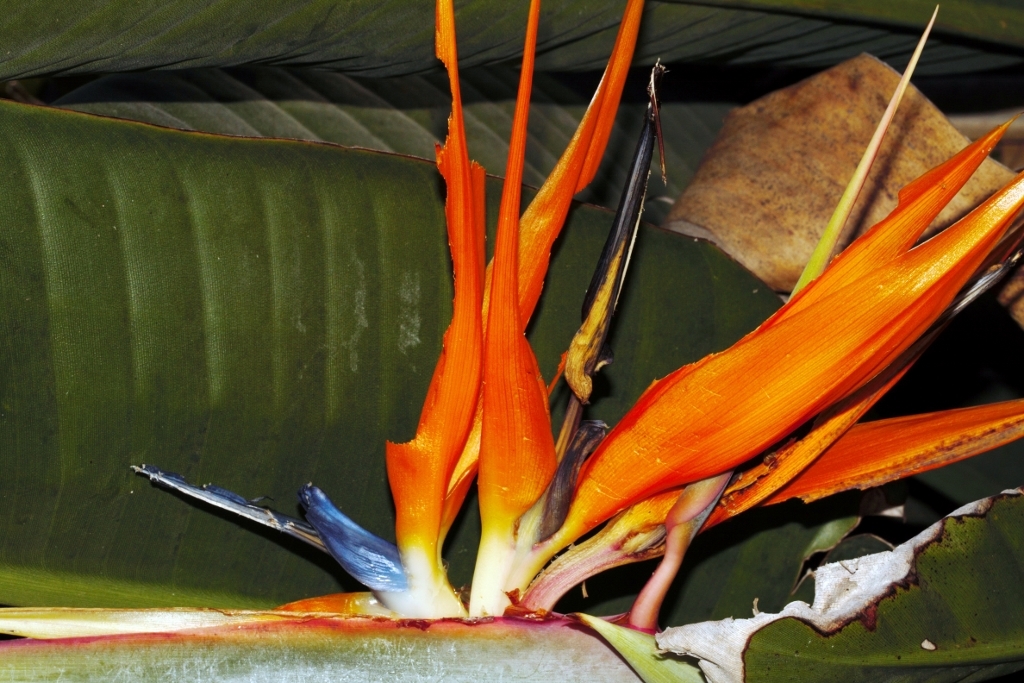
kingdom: Animalia
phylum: Arthropoda
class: Insecta
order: Orthoptera
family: Acrididae
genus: Acanthacris
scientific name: Acanthacris ruficornis
